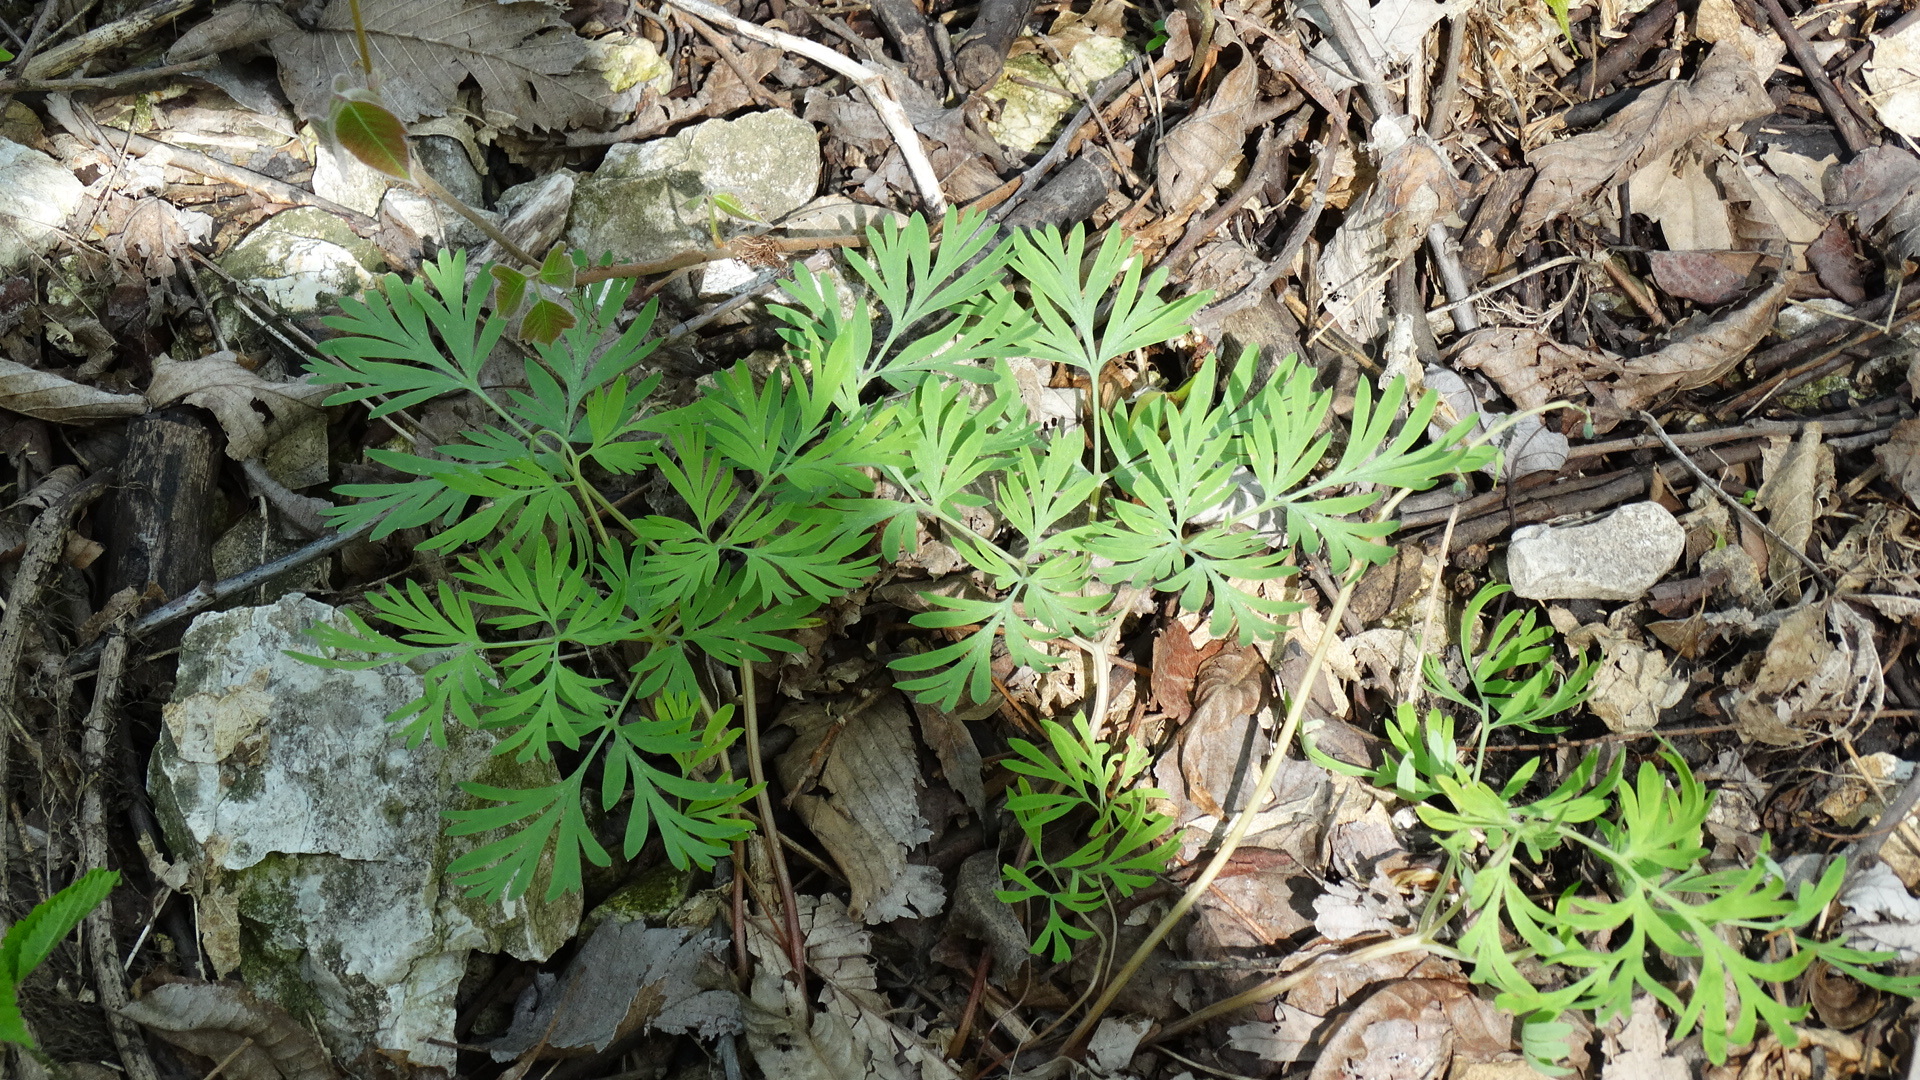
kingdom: Plantae
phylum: Tracheophyta
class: Magnoliopsida
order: Ranunculales
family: Papaveraceae
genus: Dicentra
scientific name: Dicentra cucullaria
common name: Dutchman's breeches
